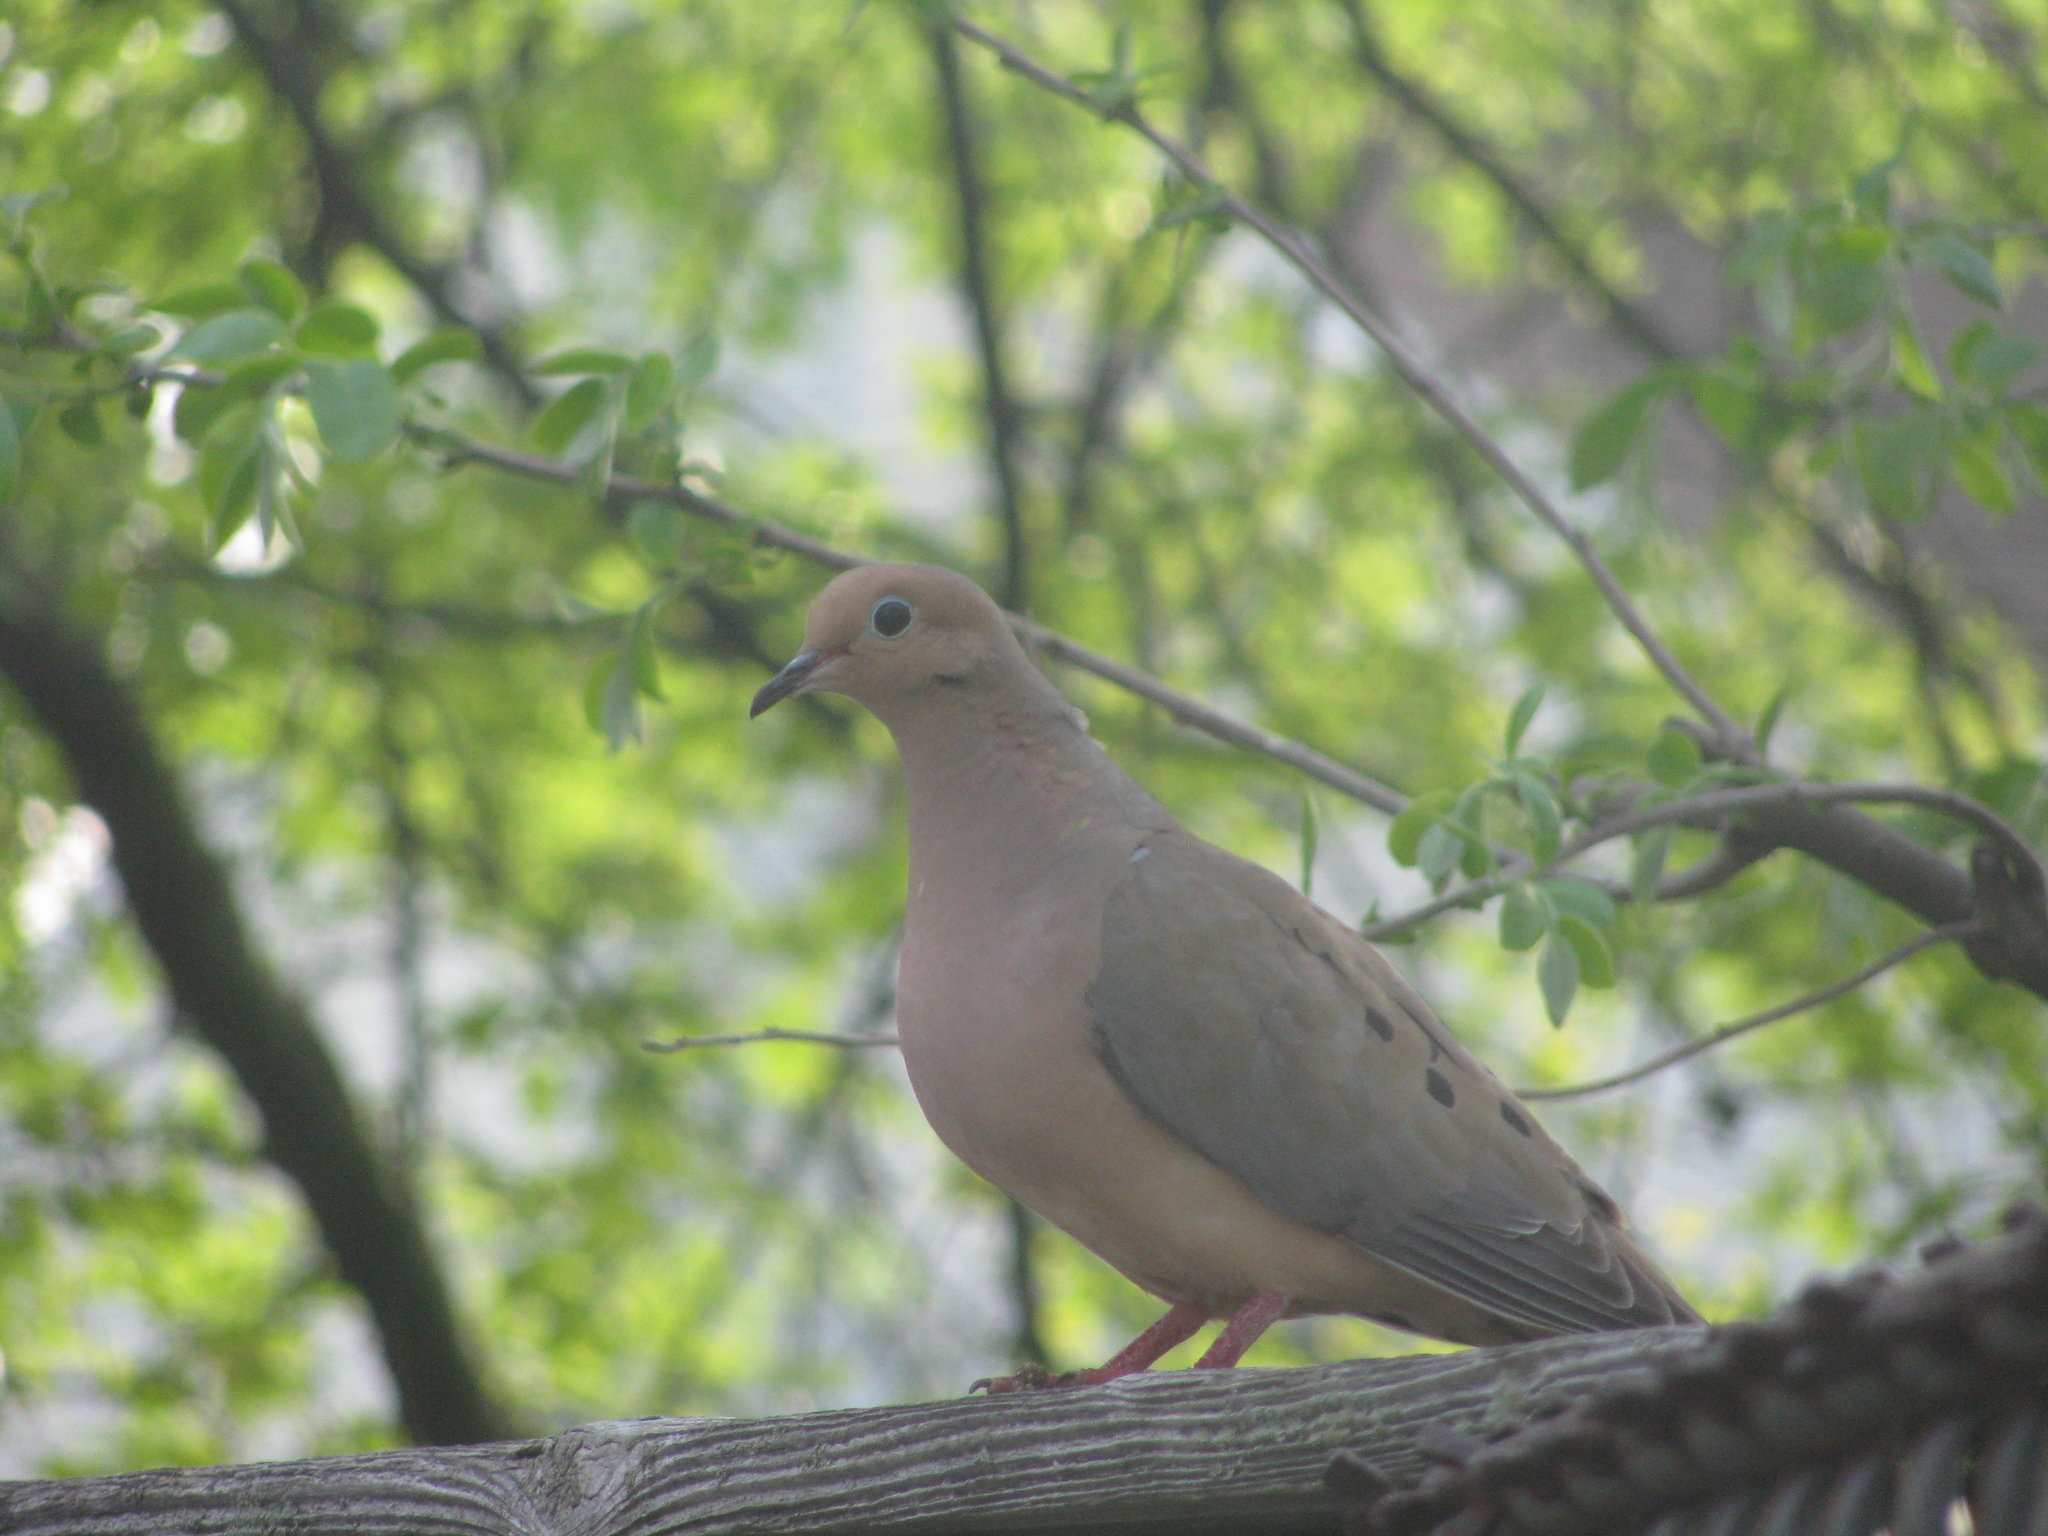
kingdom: Animalia
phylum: Chordata
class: Aves
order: Columbiformes
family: Columbidae
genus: Zenaida
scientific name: Zenaida macroura
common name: Mourning dove
